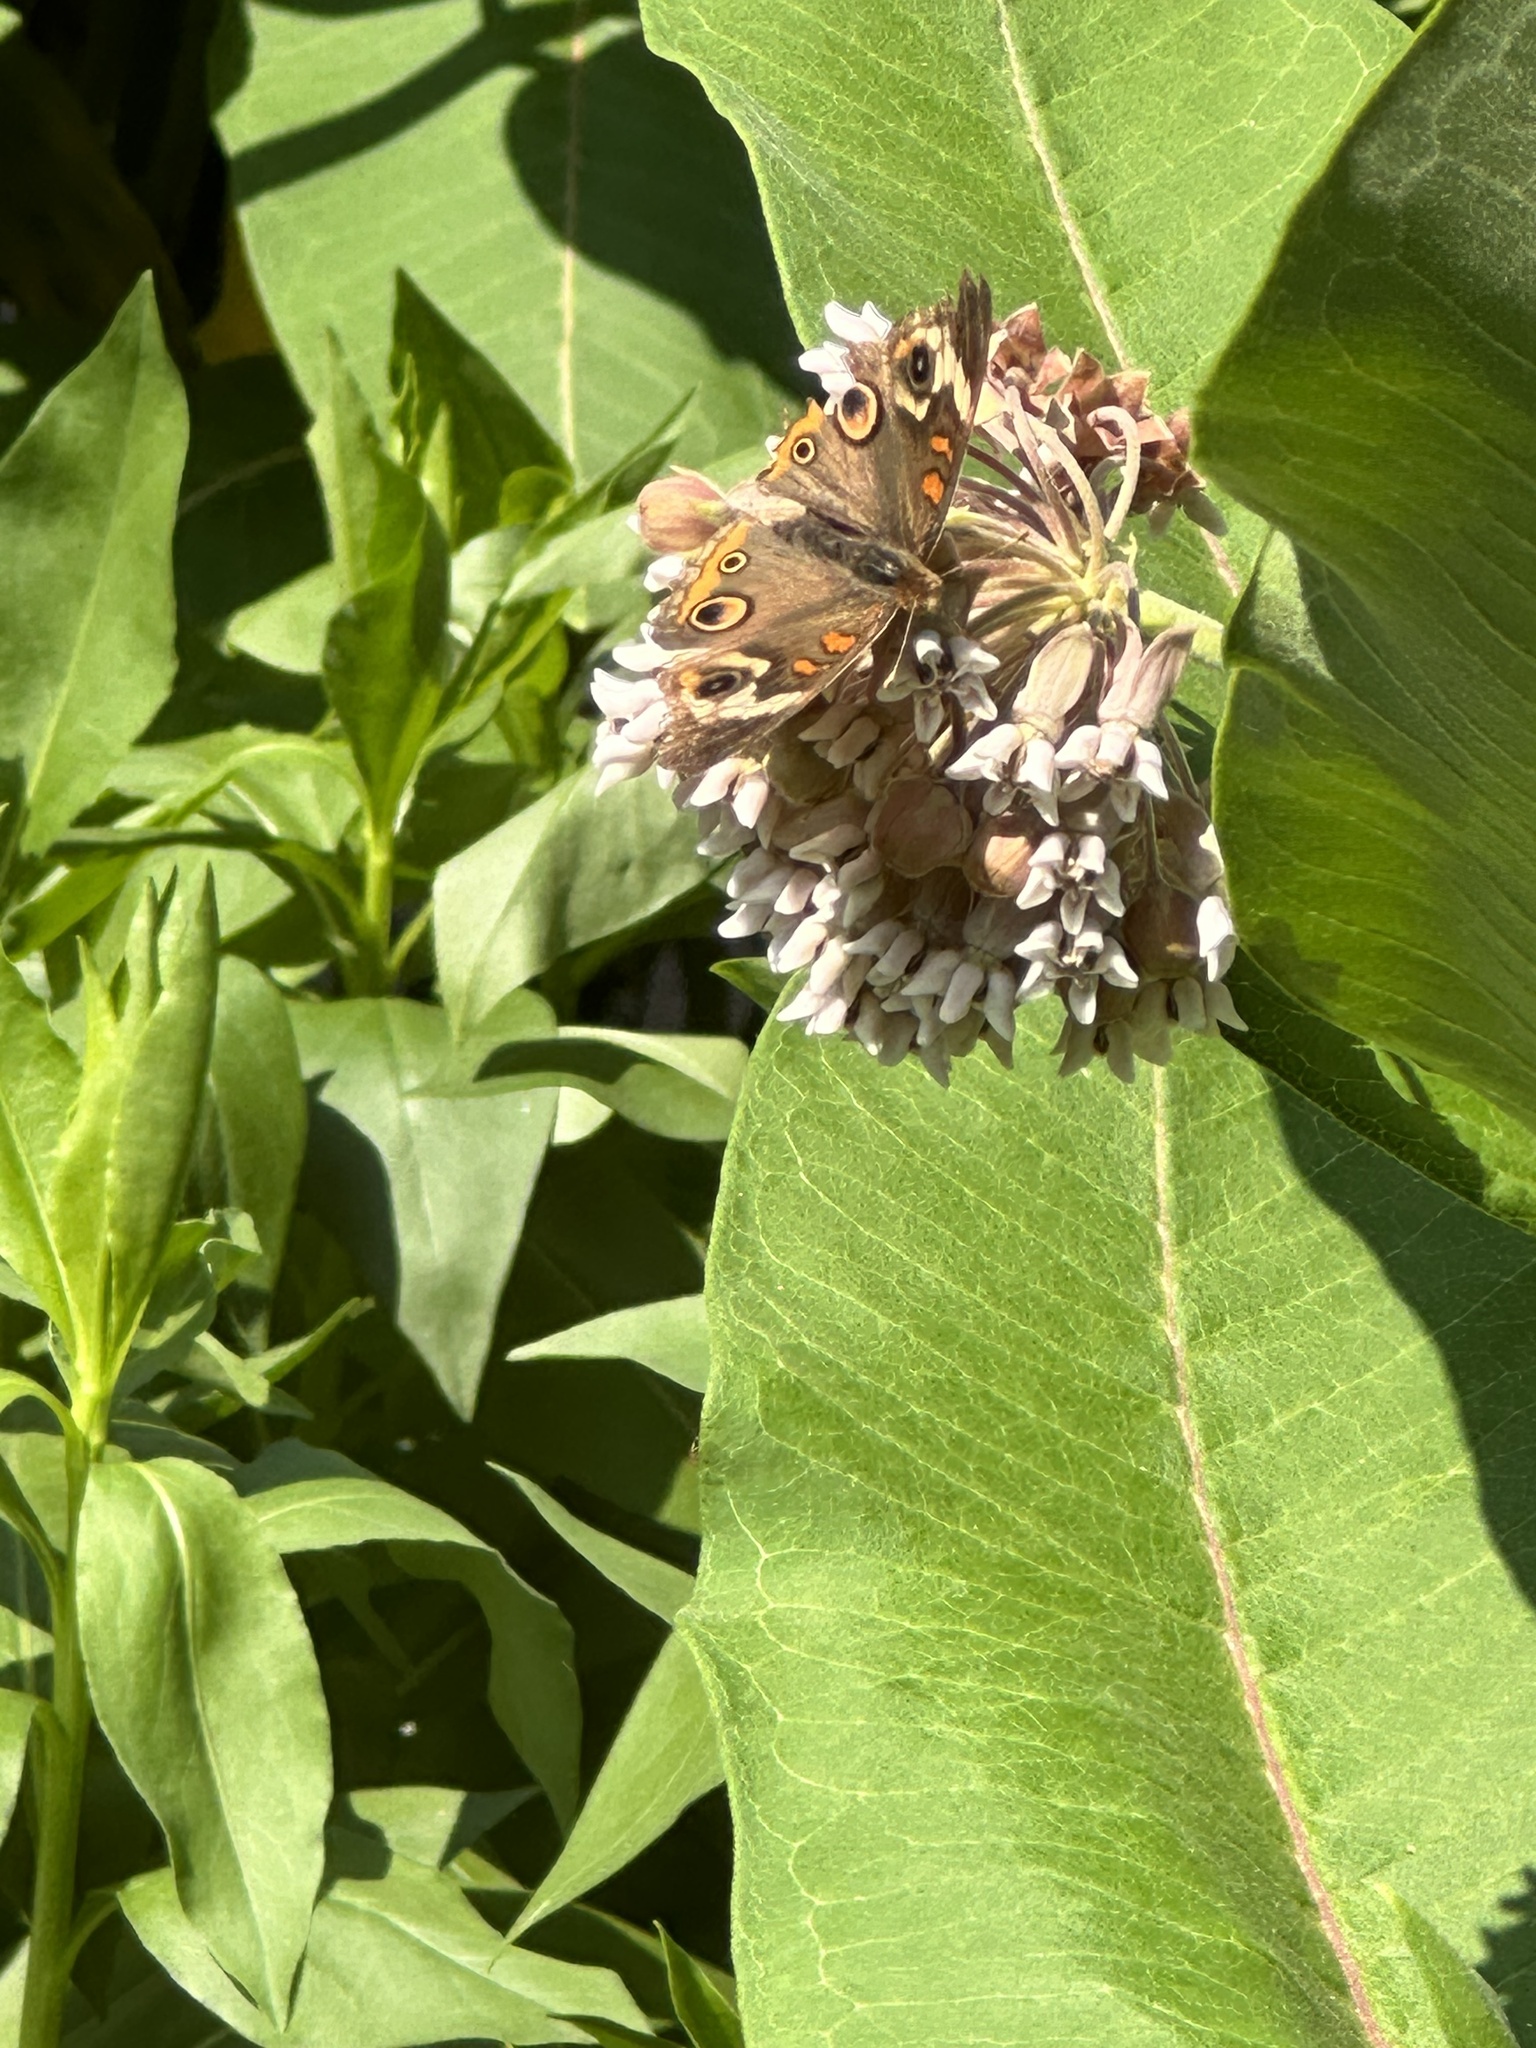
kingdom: Animalia
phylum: Arthropoda
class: Insecta
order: Lepidoptera
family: Nymphalidae
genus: Junonia
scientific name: Junonia coenia
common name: Common buckeye
